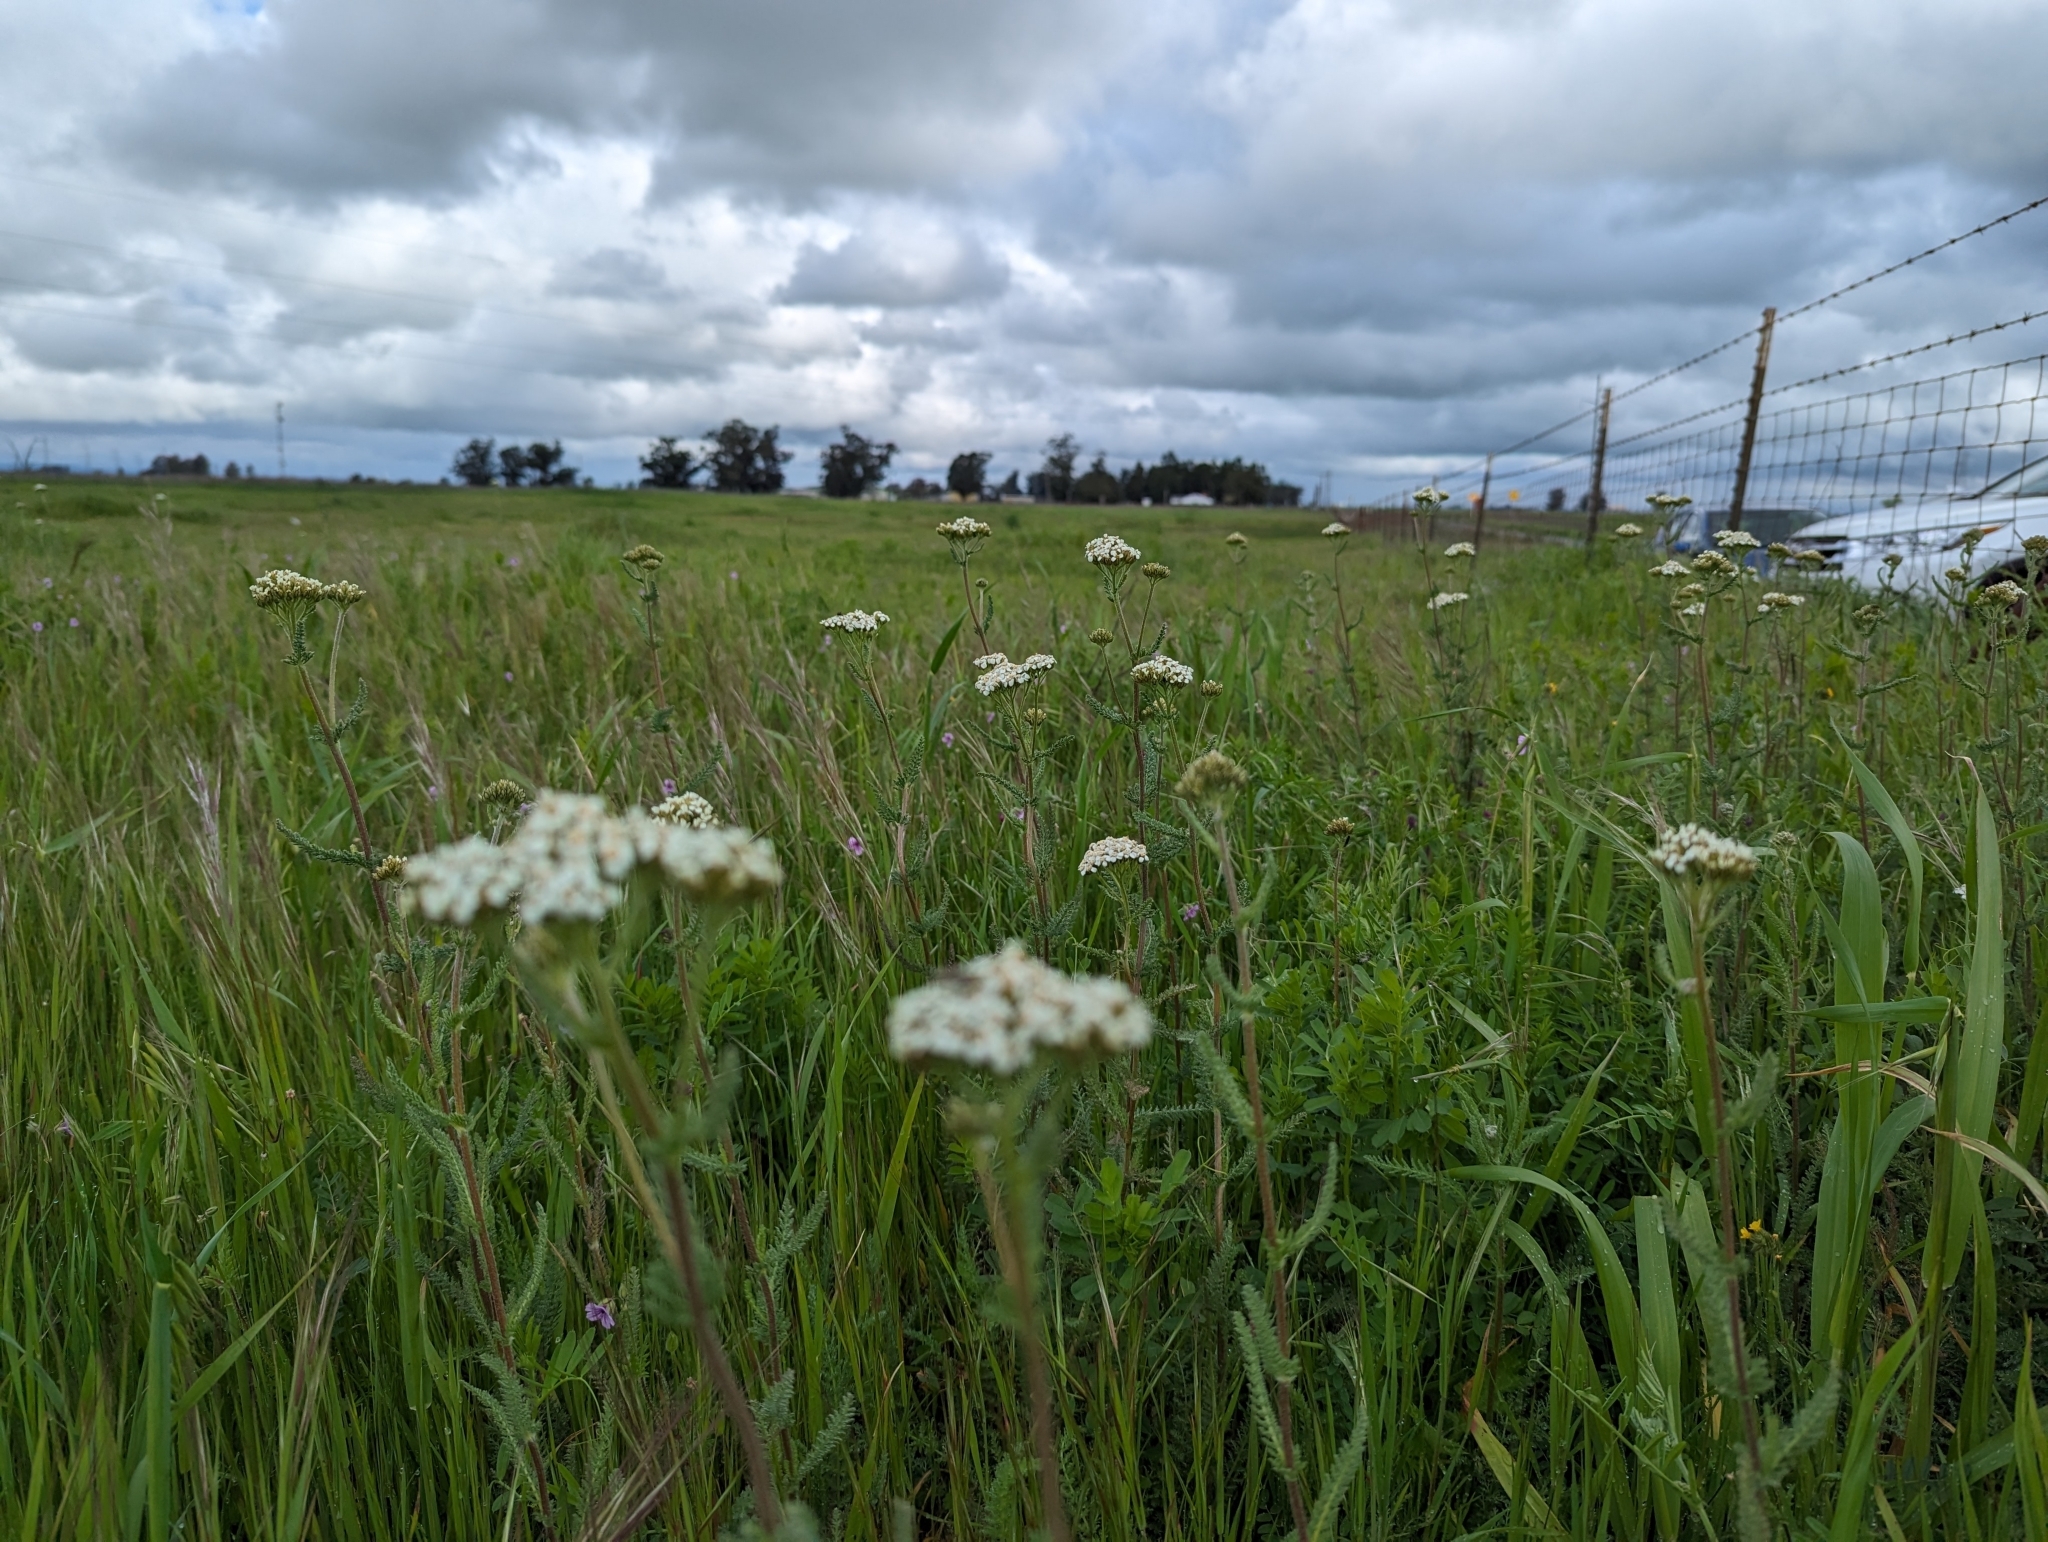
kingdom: Plantae
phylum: Tracheophyta
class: Magnoliopsida
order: Asterales
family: Asteraceae
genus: Achillea
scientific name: Achillea millefolium
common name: Yarrow
